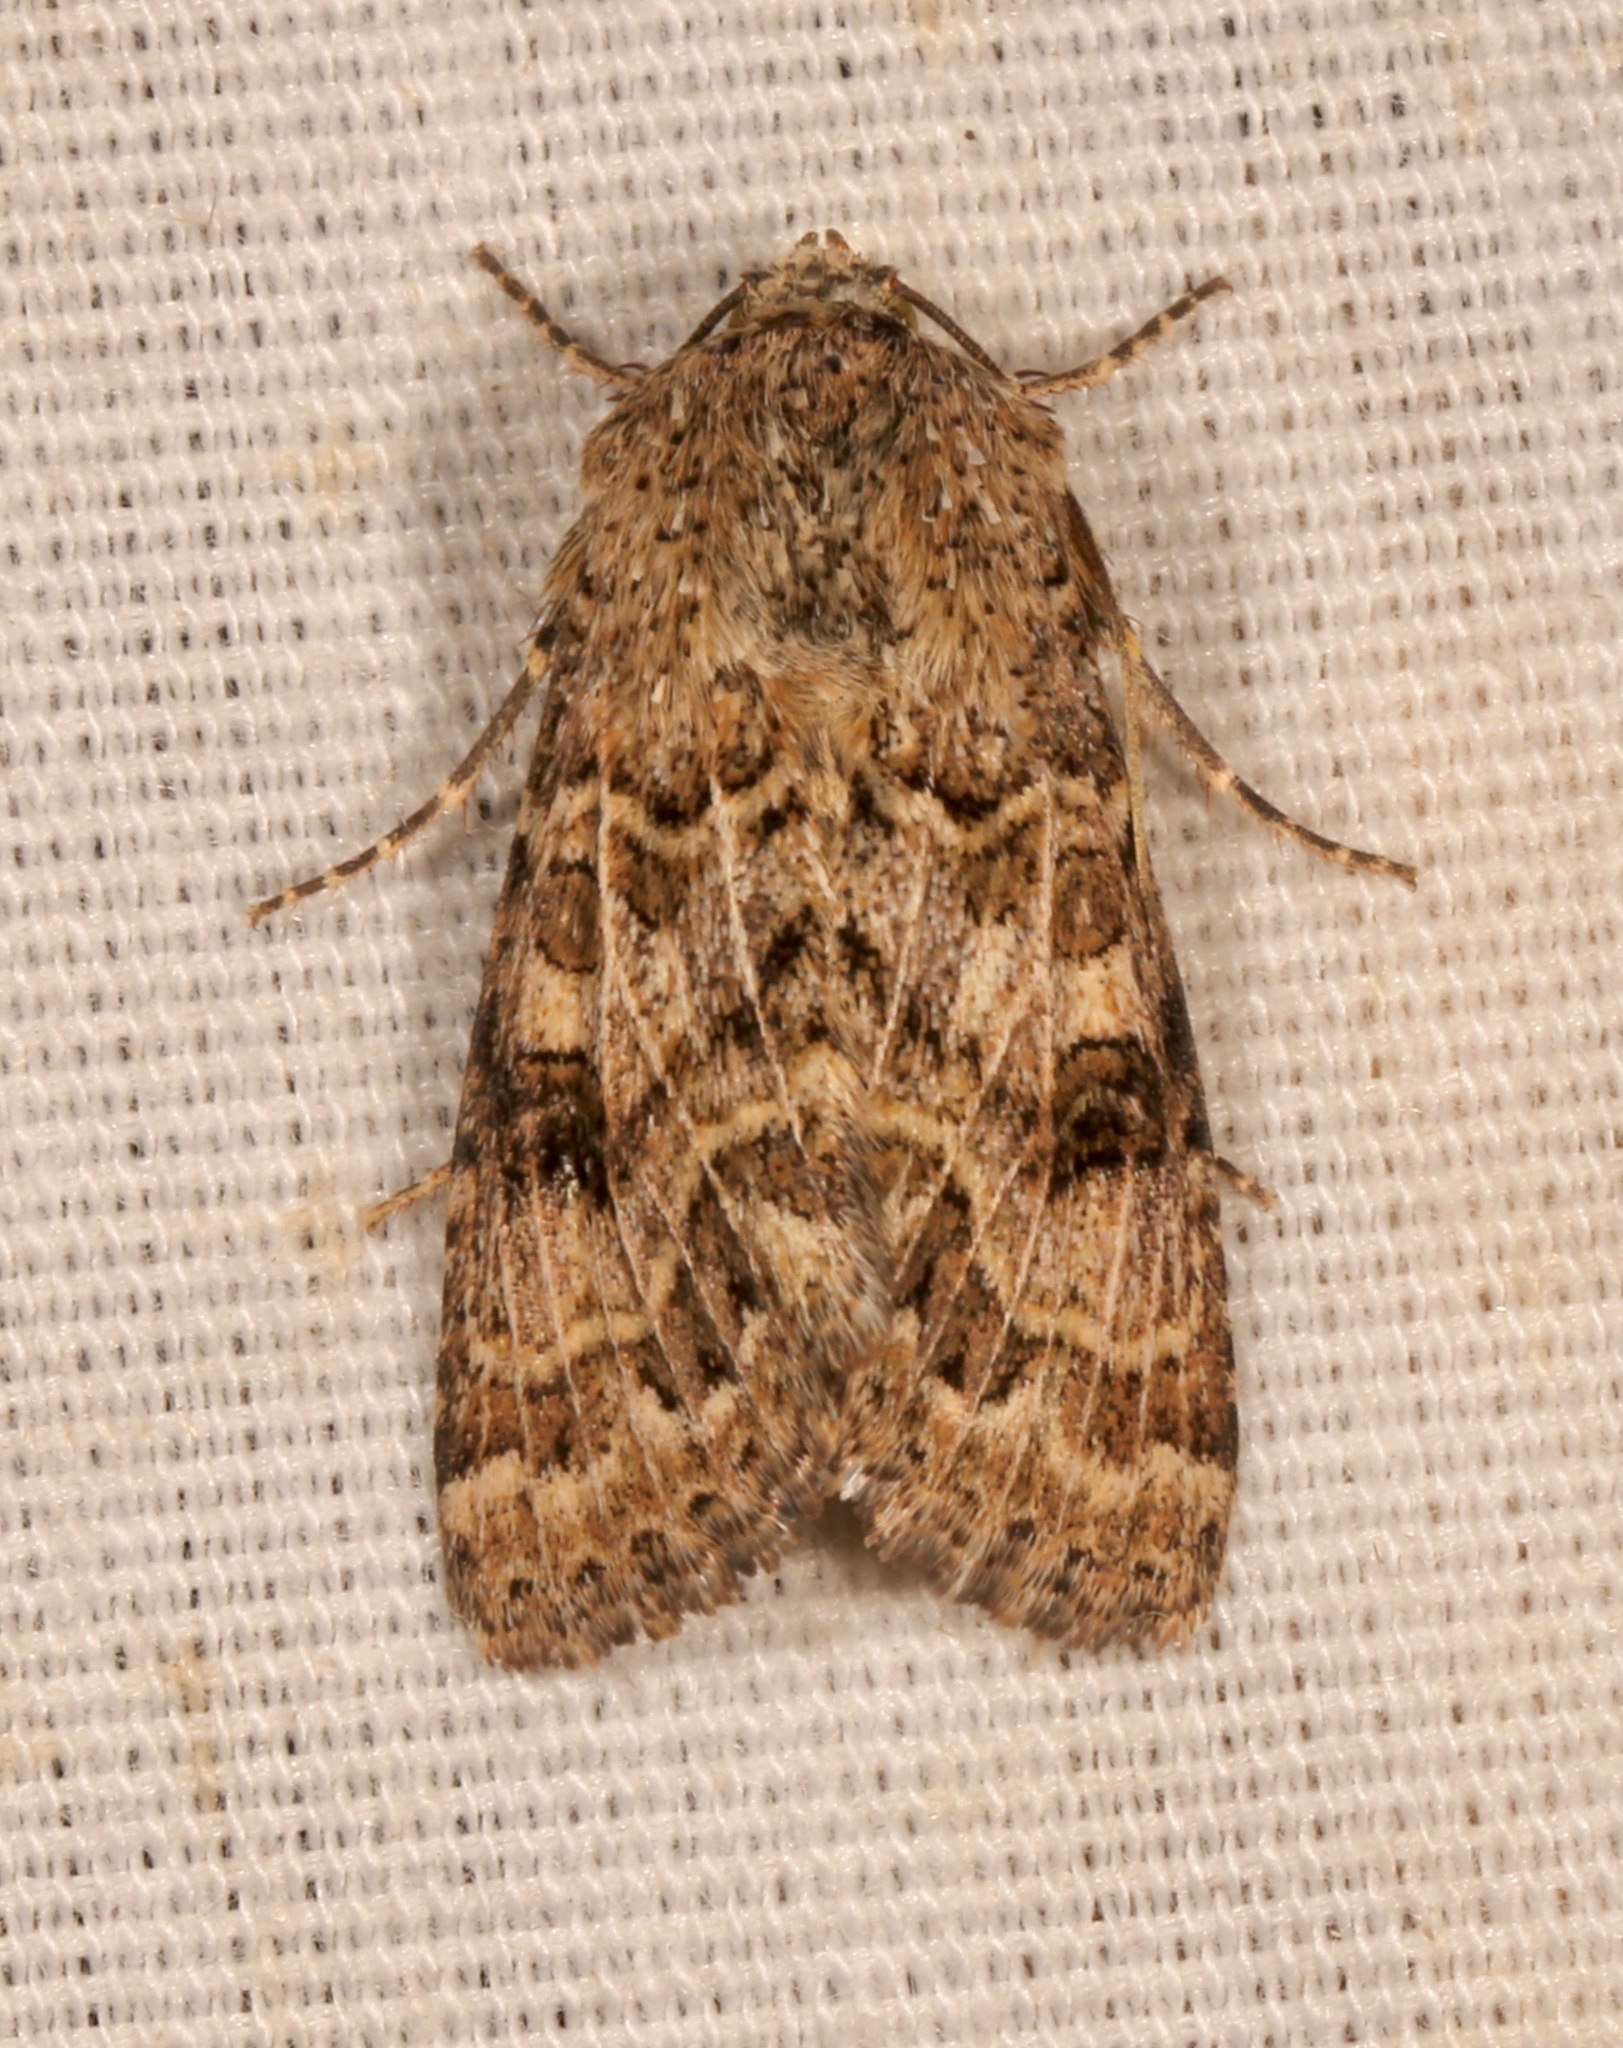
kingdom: Animalia
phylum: Arthropoda
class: Insecta
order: Lepidoptera
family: Noctuidae
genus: Schinia
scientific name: Schinia crotchii
